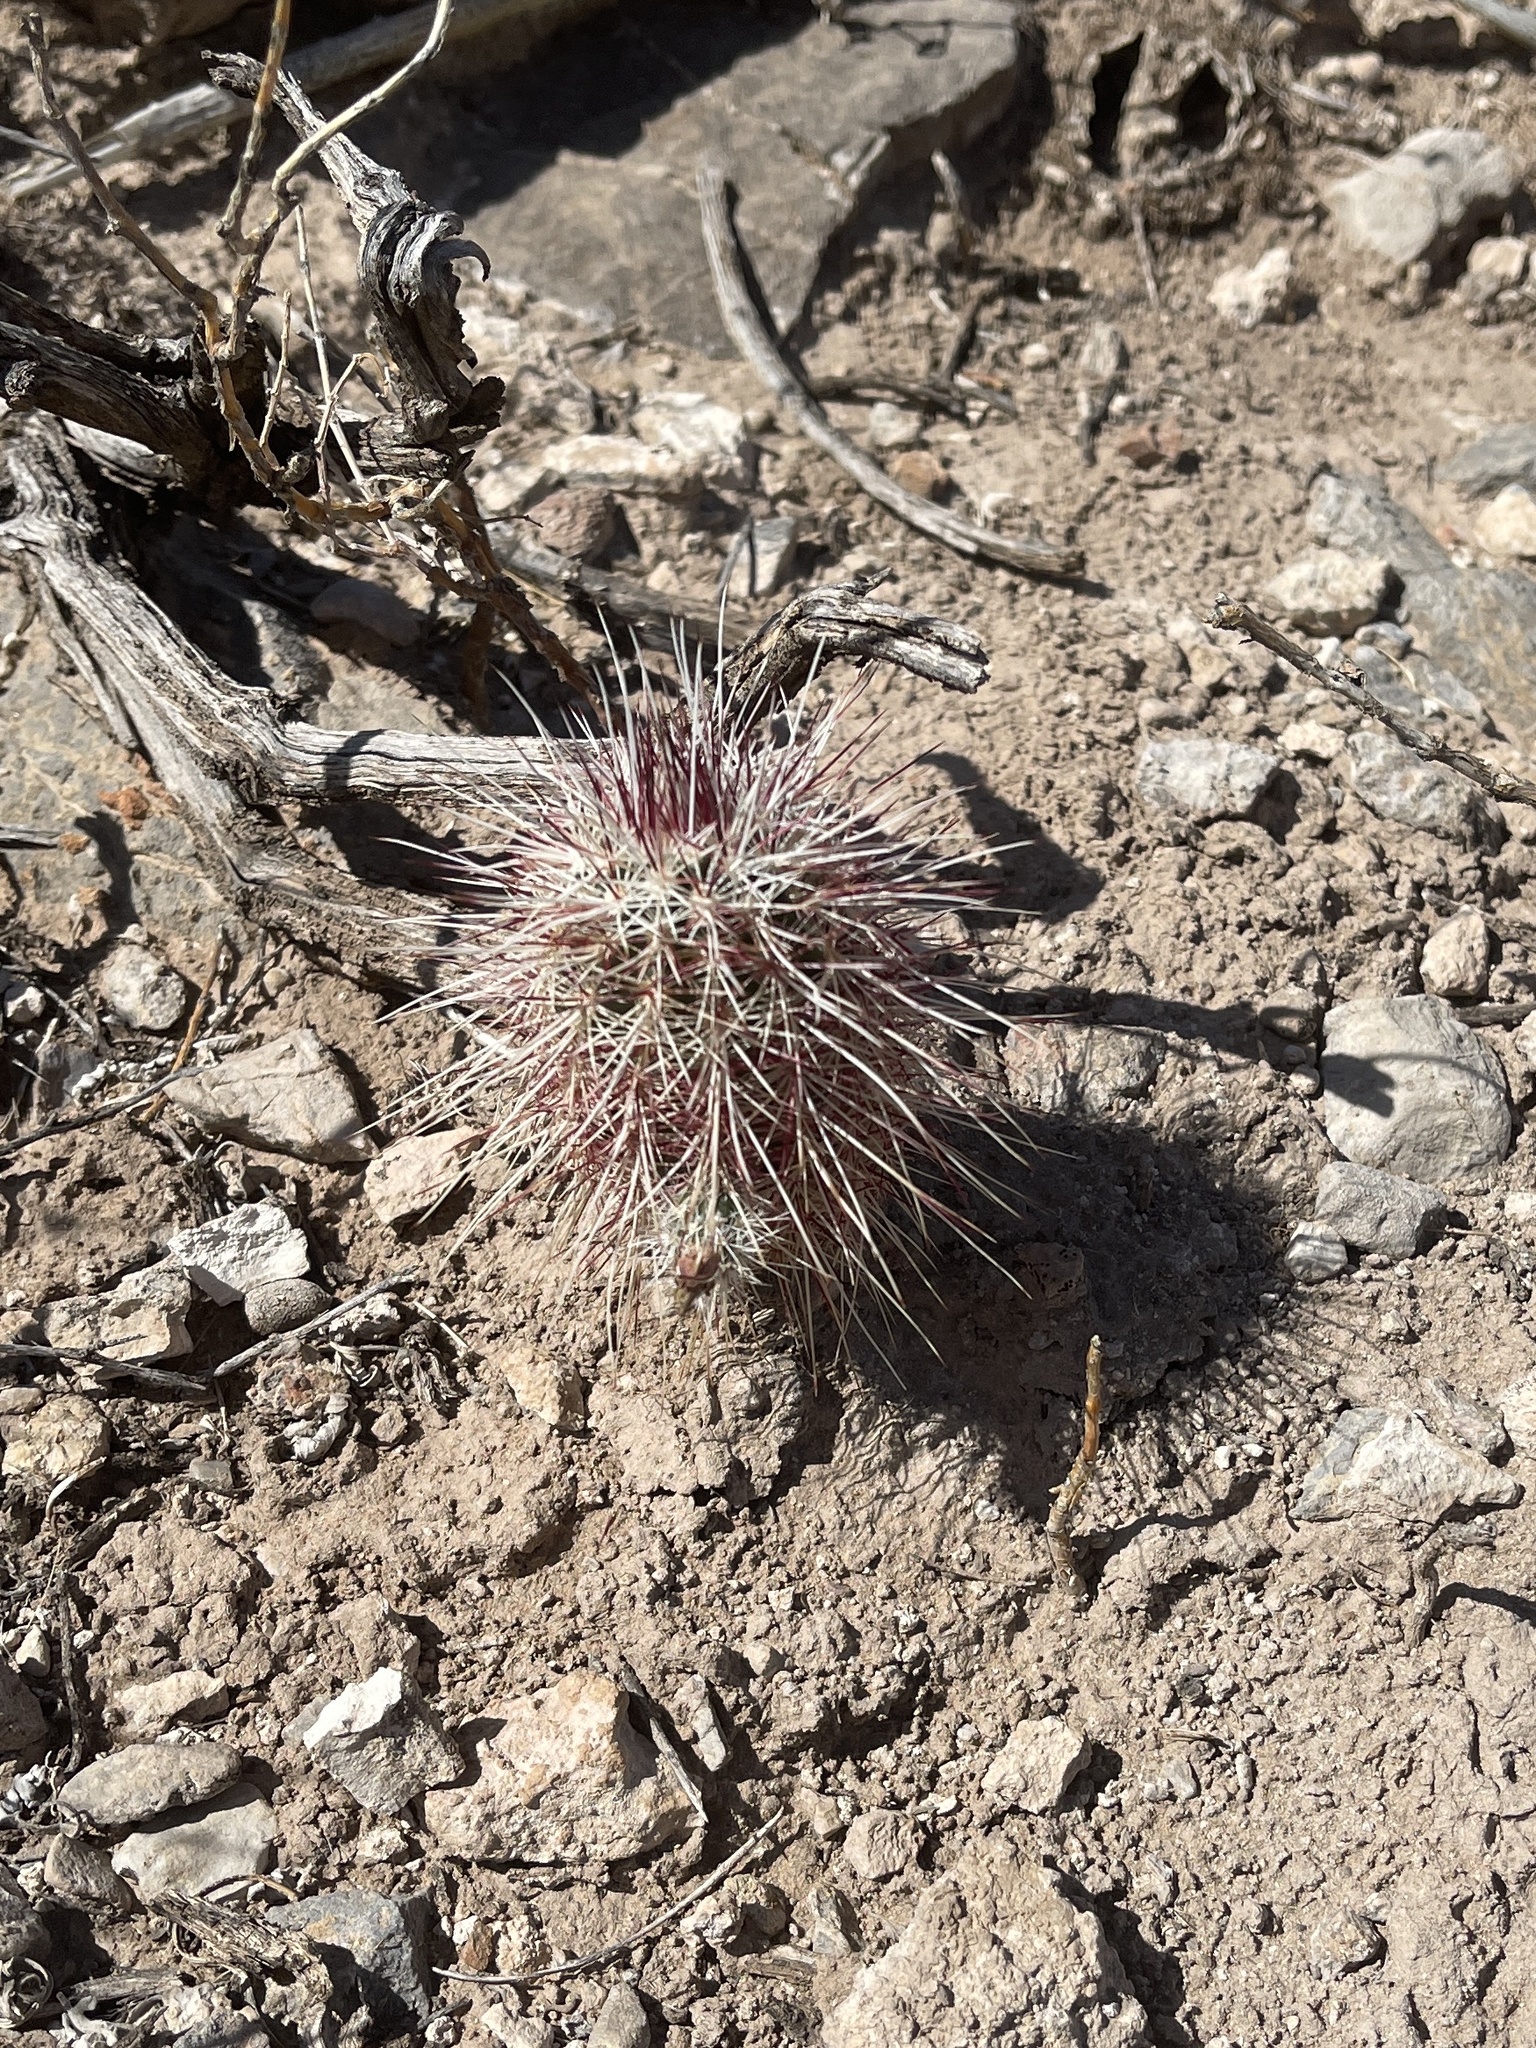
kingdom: Plantae
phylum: Tracheophyta
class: Magnoliopsida
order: Caryophyllales
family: Cactaceae
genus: Echinocereus
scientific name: Echinocereus viridiflorus
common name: Nylon hedgehog cactus
